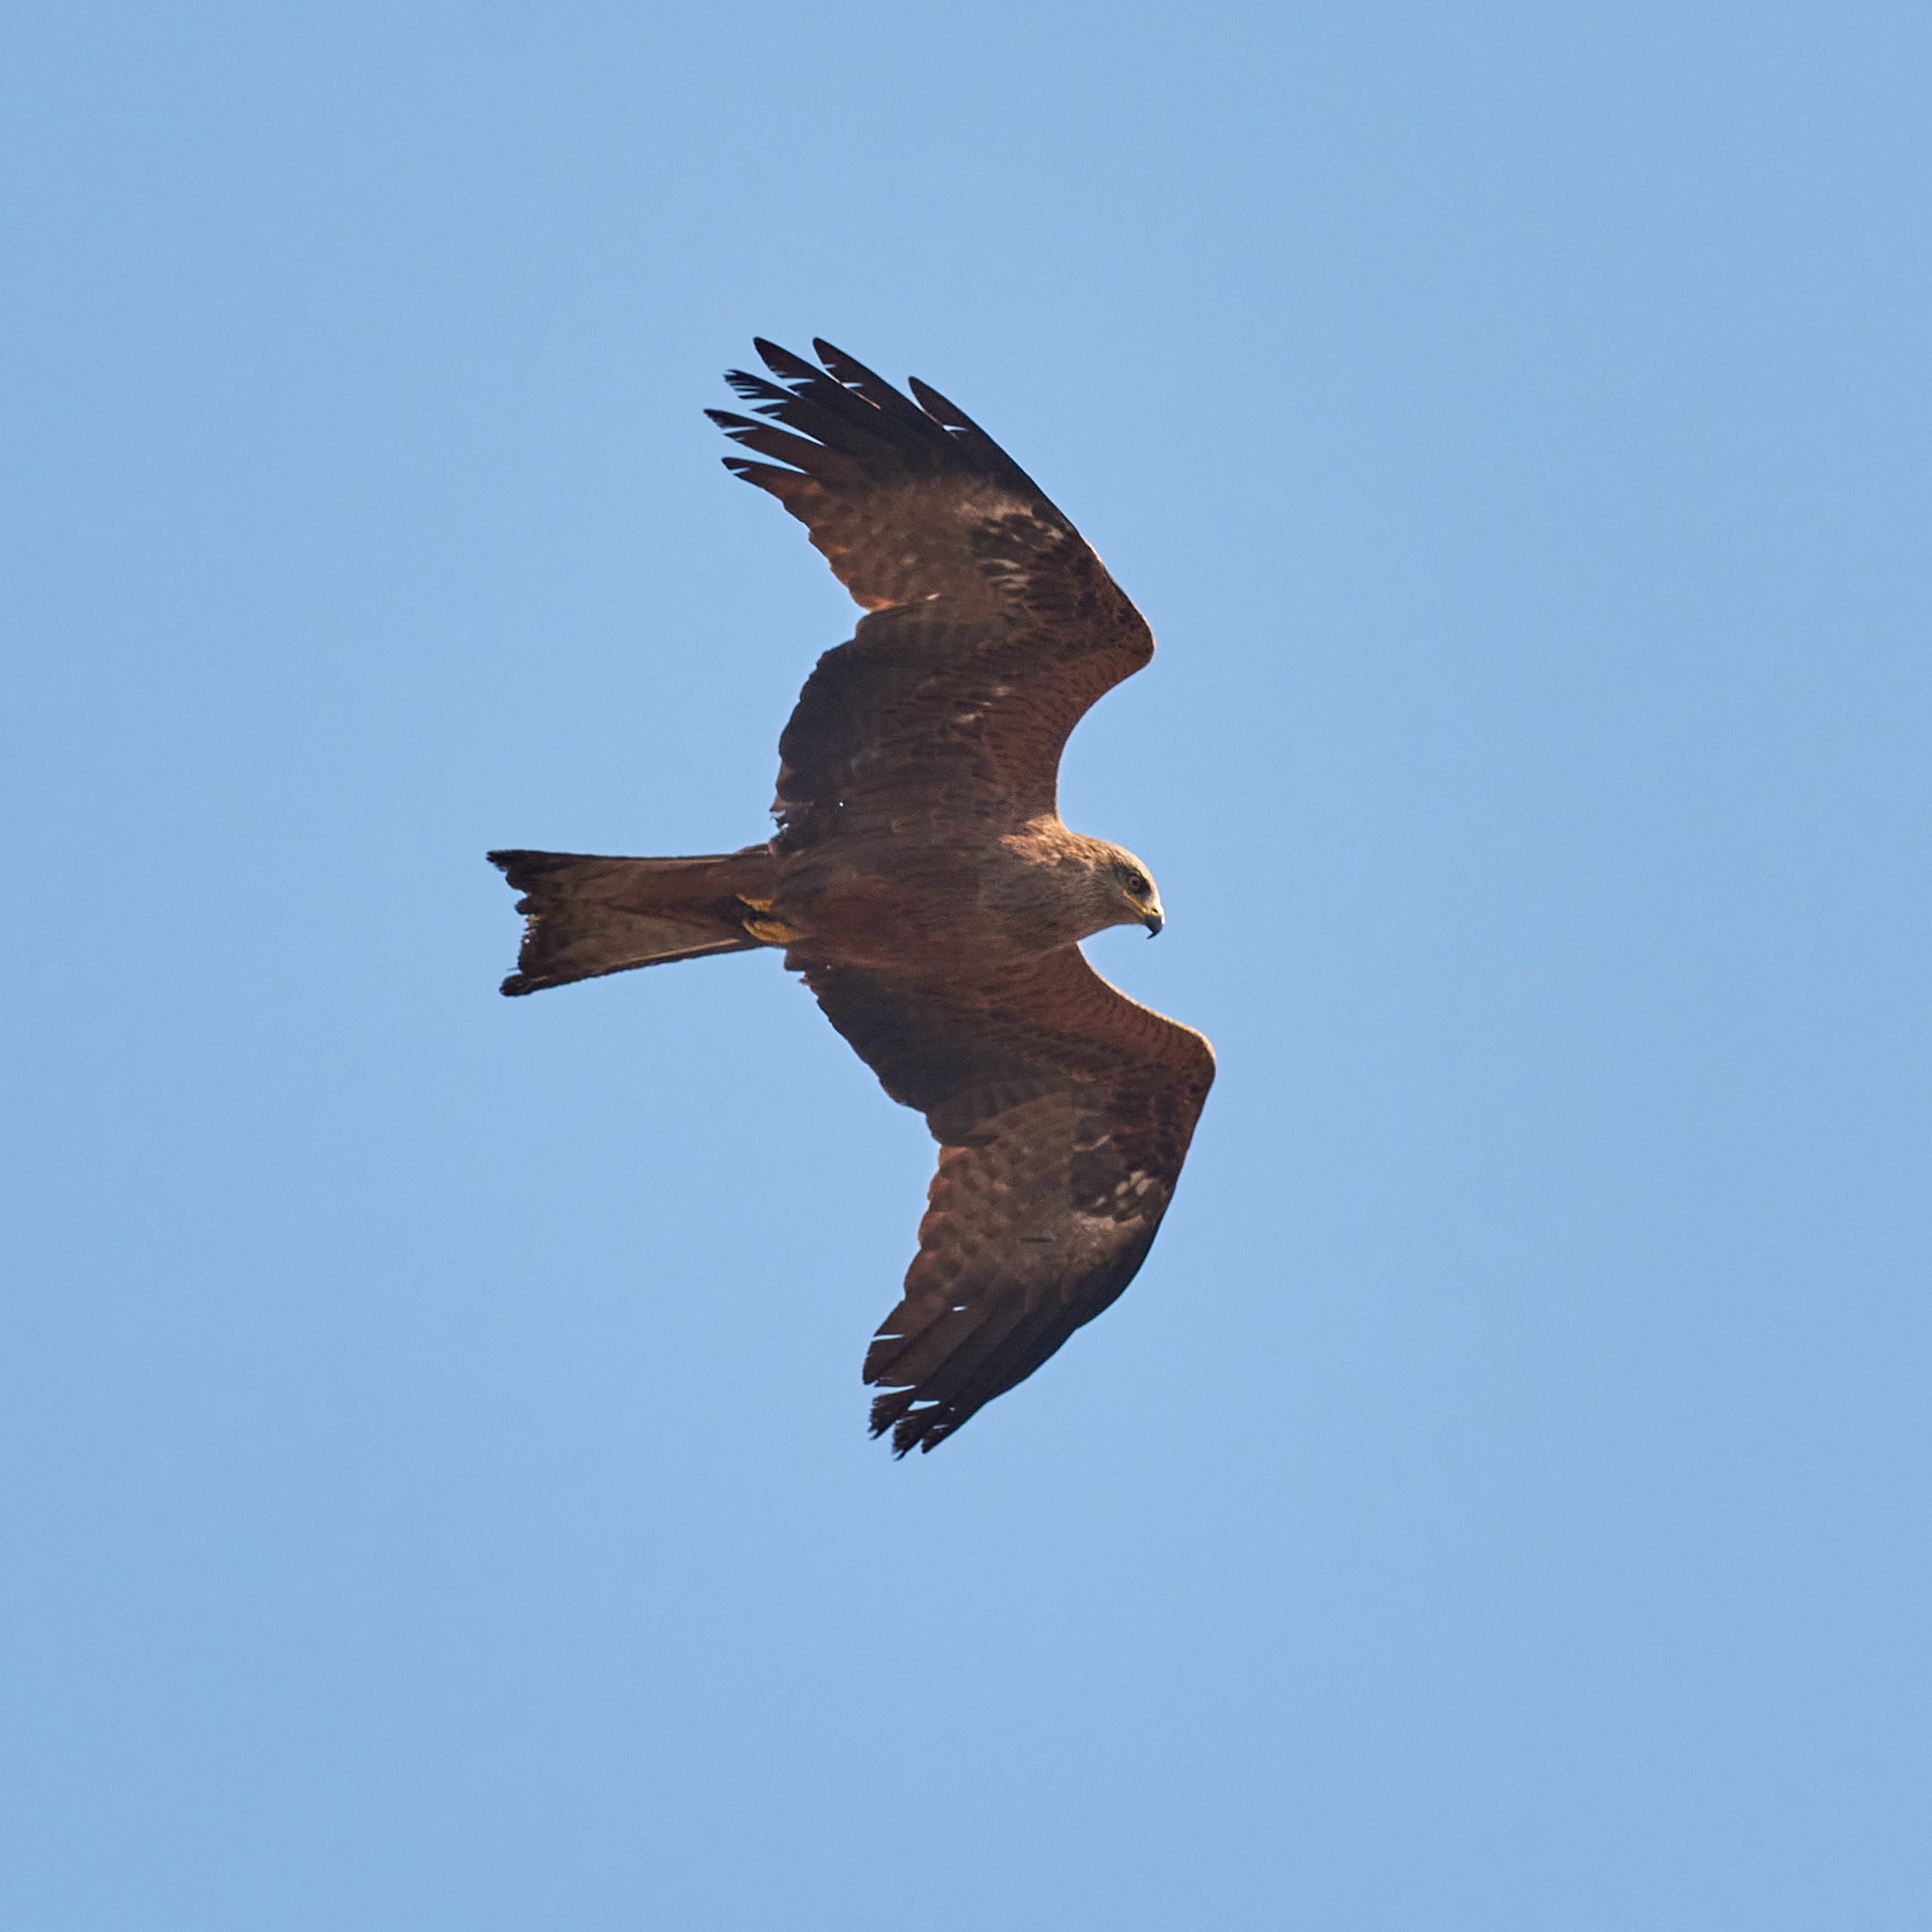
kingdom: Animalia
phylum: Chordata
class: Aves
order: Accipitriformes
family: Accipitridae
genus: Milvus
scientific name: Milvus migrans
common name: Black kite
